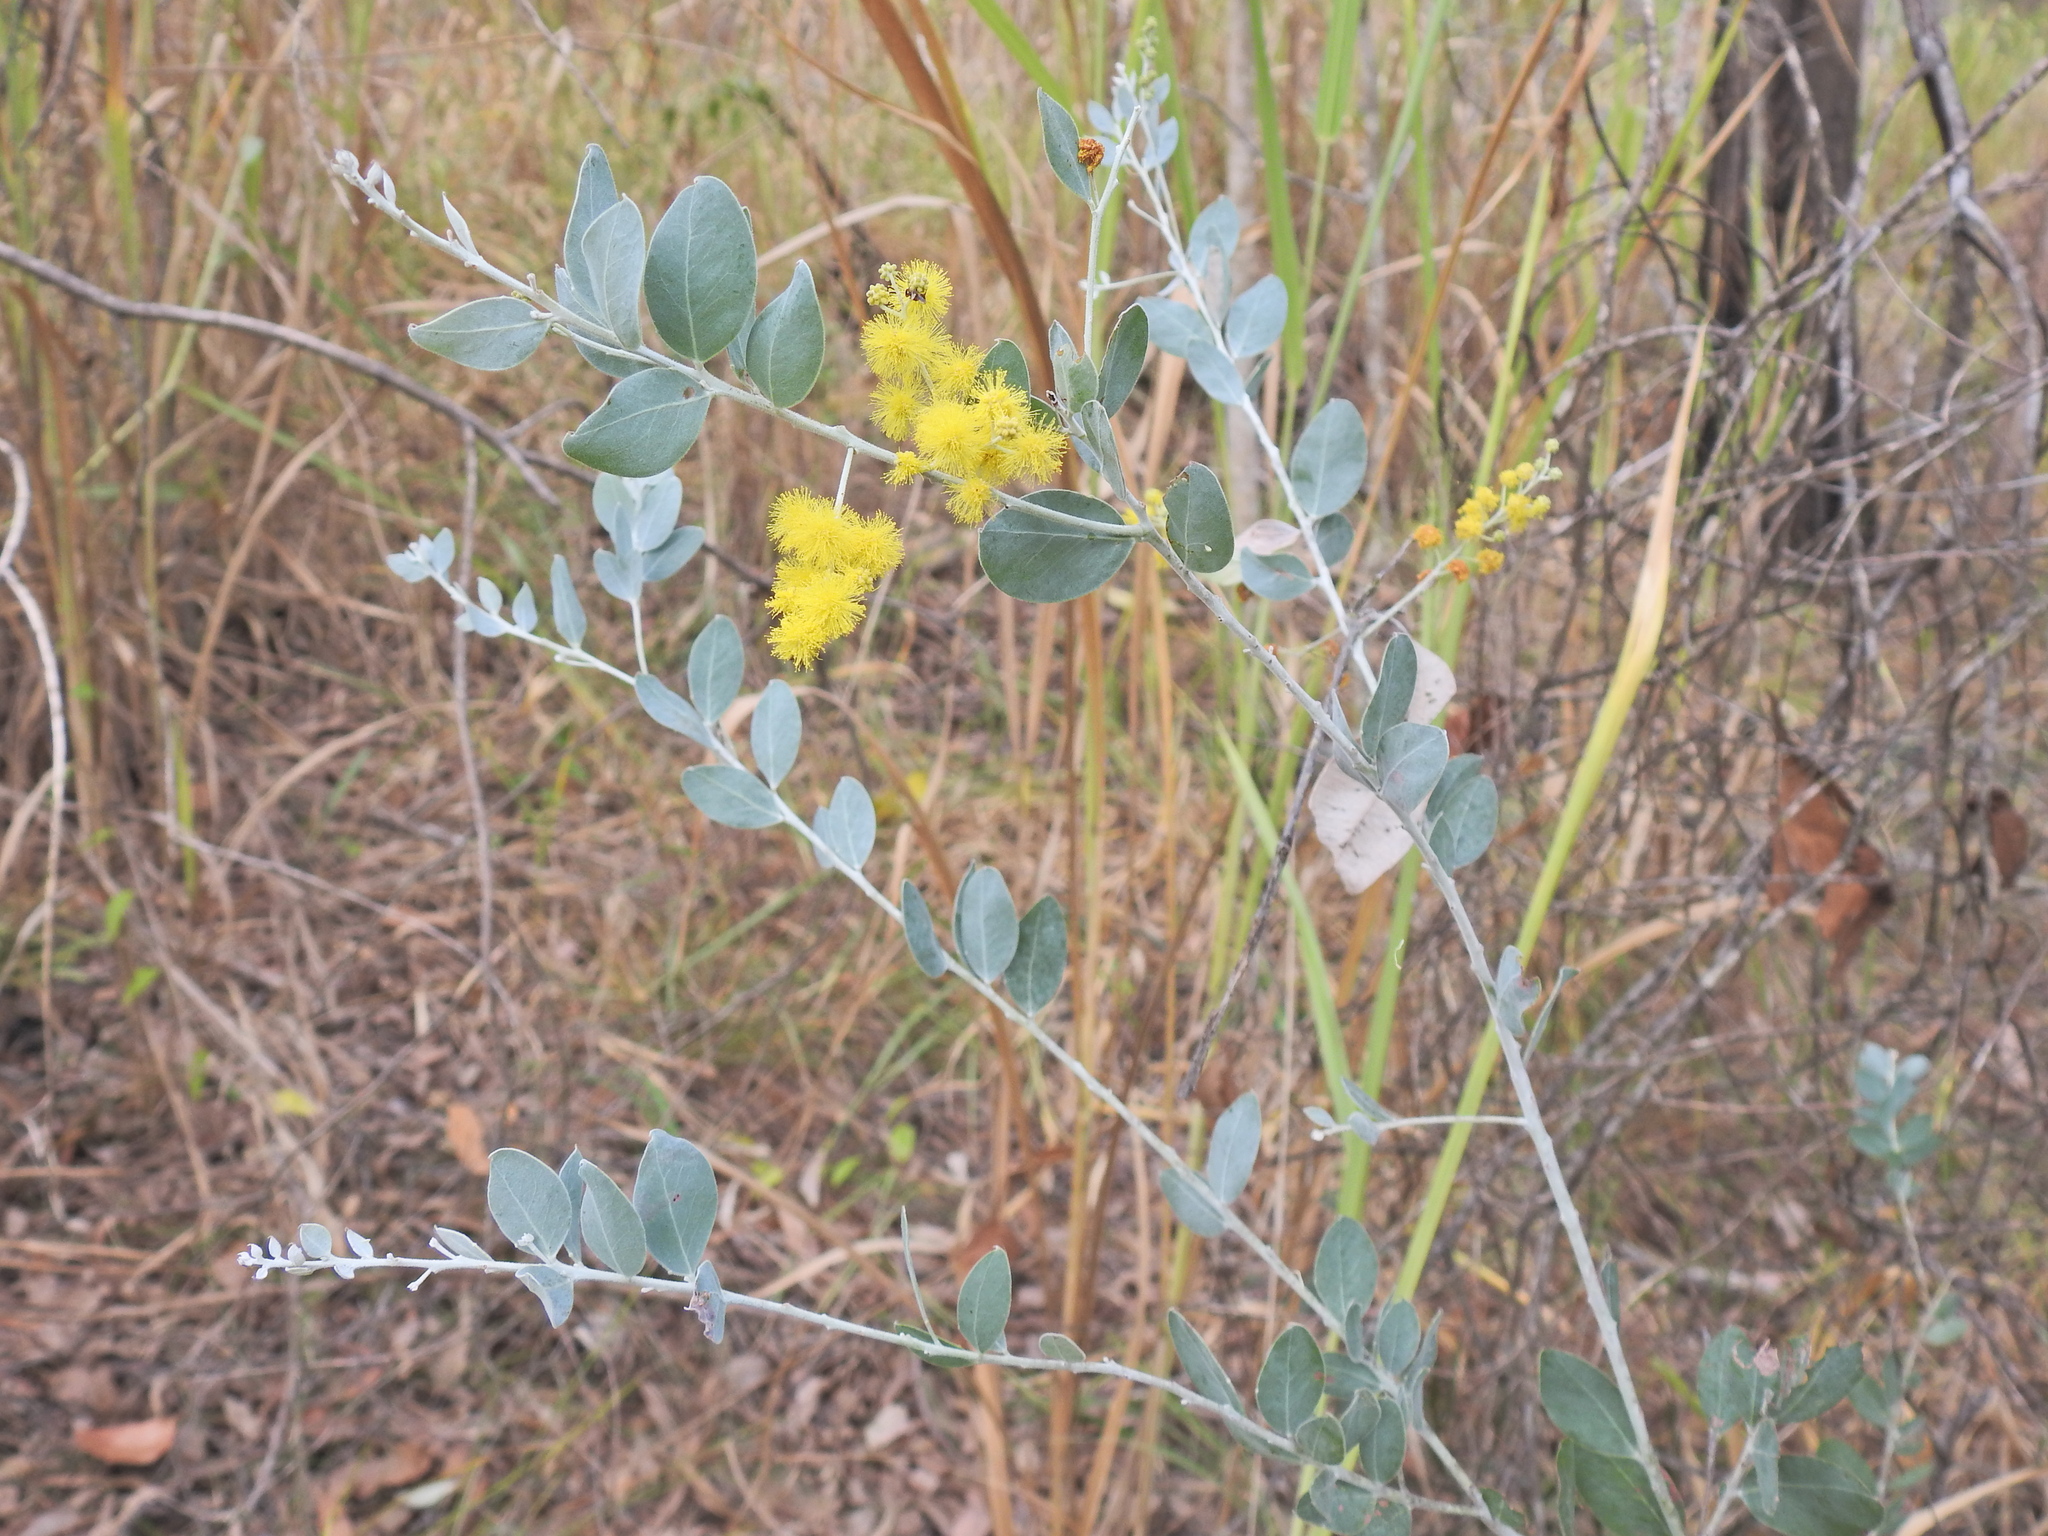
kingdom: Plantae
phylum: Tracheophyta
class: Magnoliopsida
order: Fabales
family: Fabaceae
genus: Acacia
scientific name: Acacia podalyriifolia
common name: Pearl wattle
